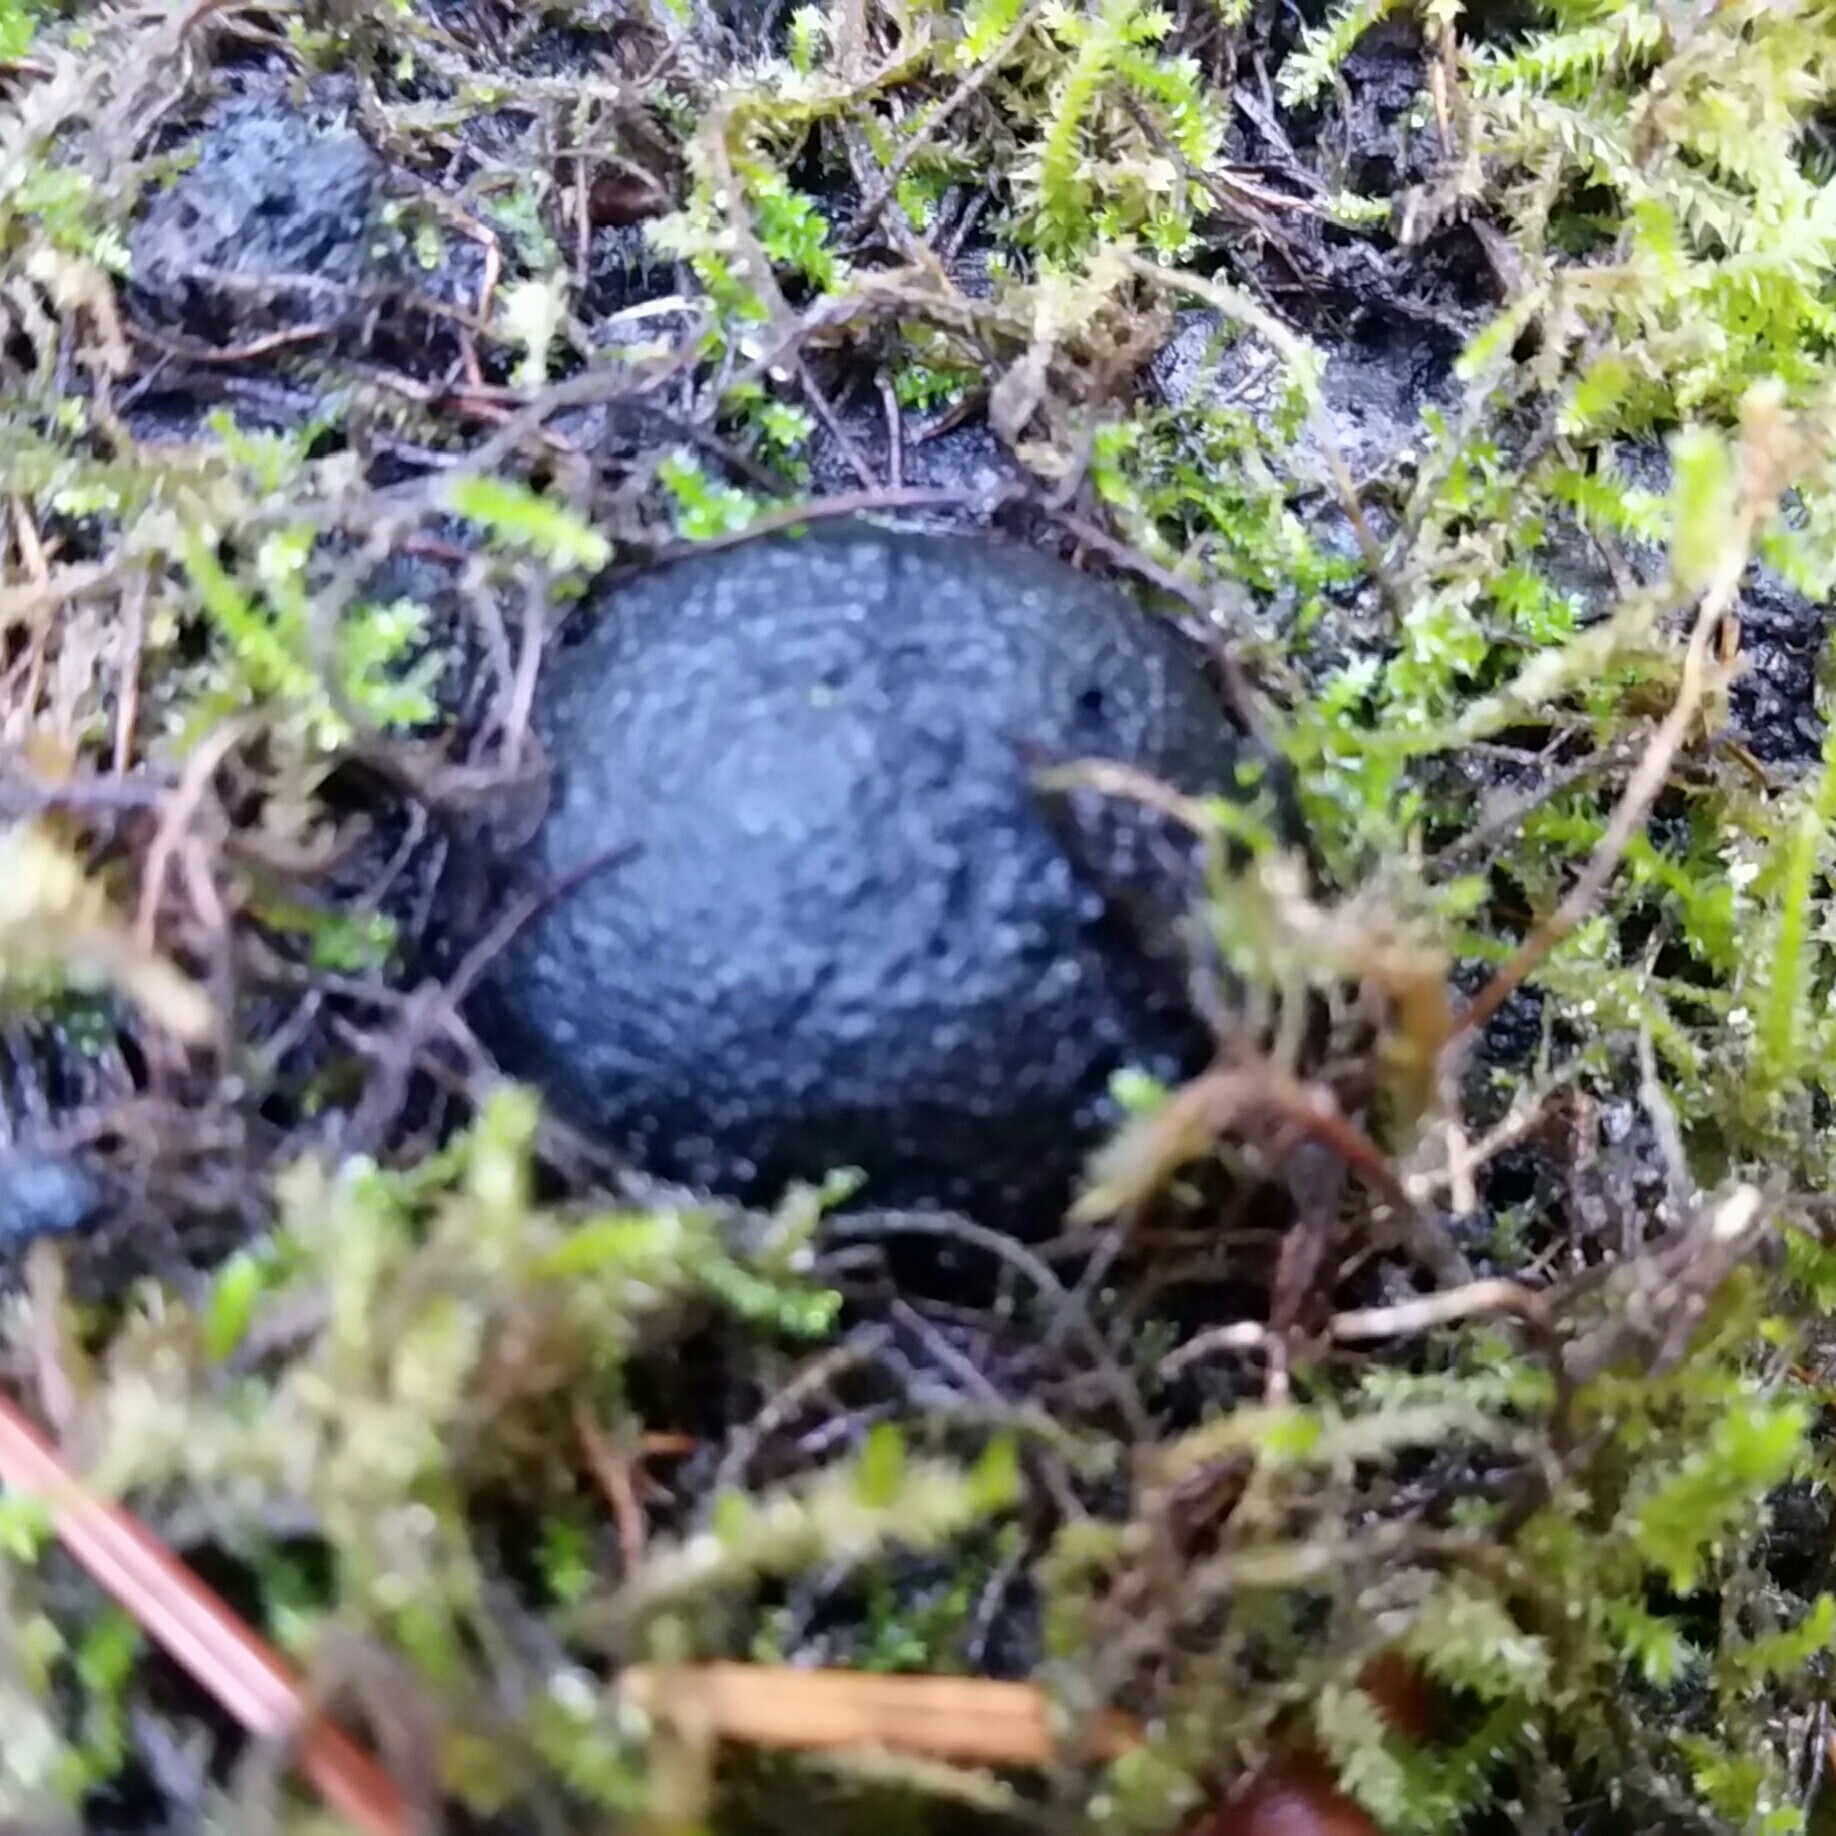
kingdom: Fungi
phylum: Ascomycota
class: Sordariomycetes
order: Xylariales
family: Hypoxylaceae
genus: Annulohypoxylon
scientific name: Annulohypoxylon thouarsianum
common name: Cramp balls
